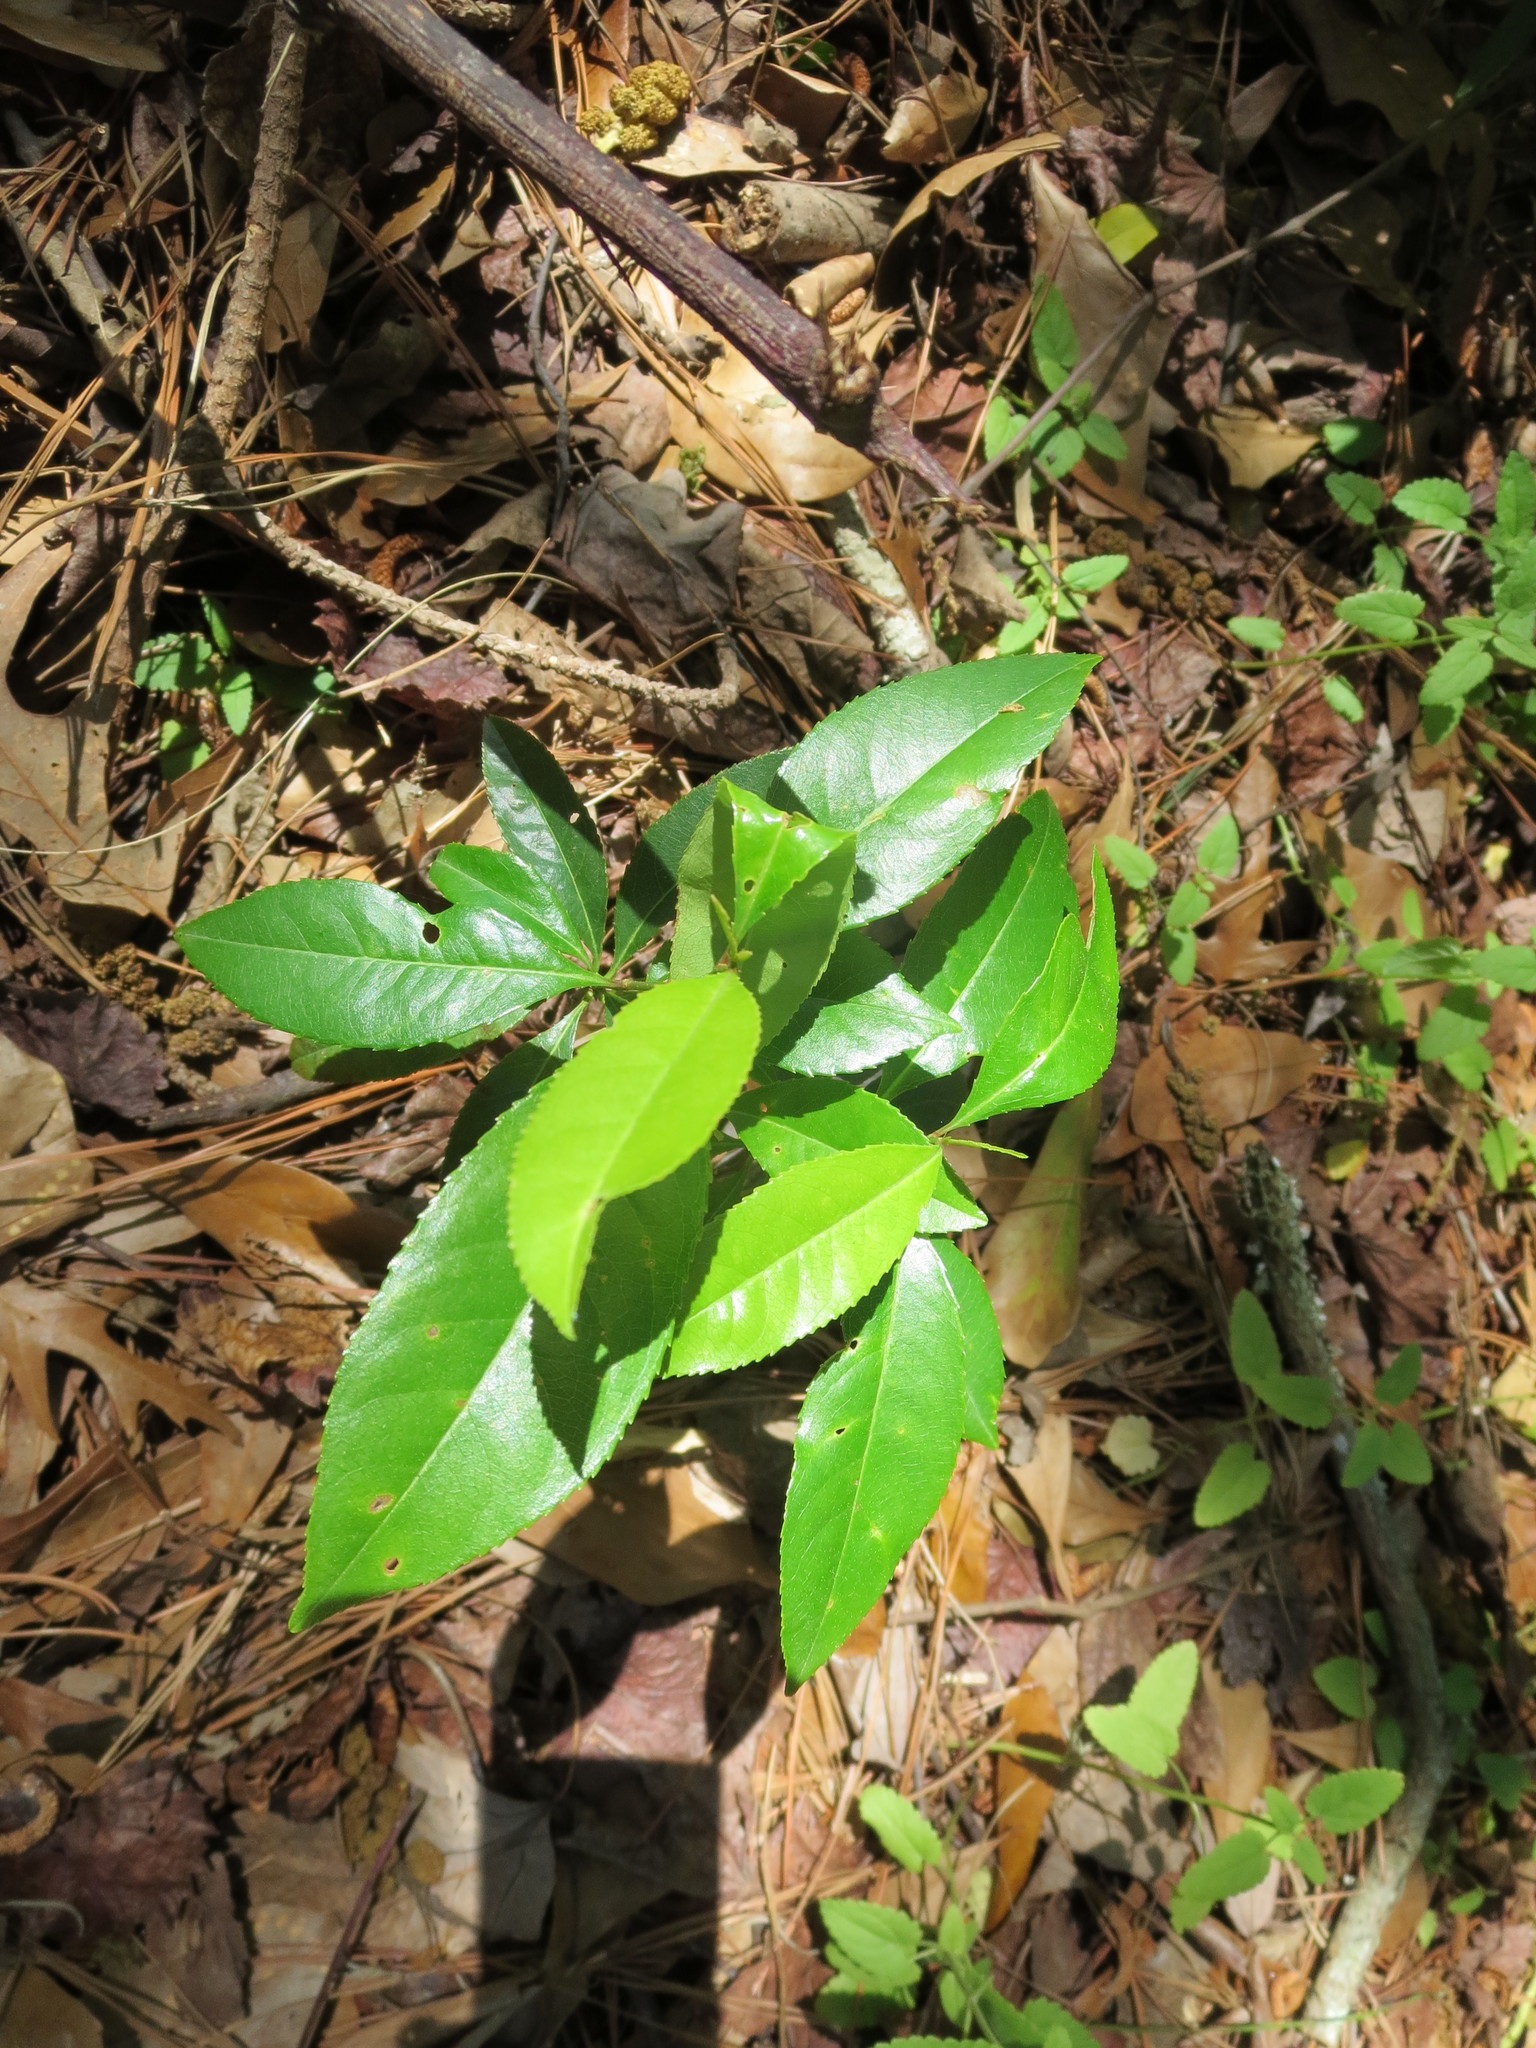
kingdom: Plantae
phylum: Tracheophyta
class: Magnoliopsida
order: Rosales
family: Rosaceae
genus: Prunus
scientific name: Prunus serotina
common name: Black cherry
